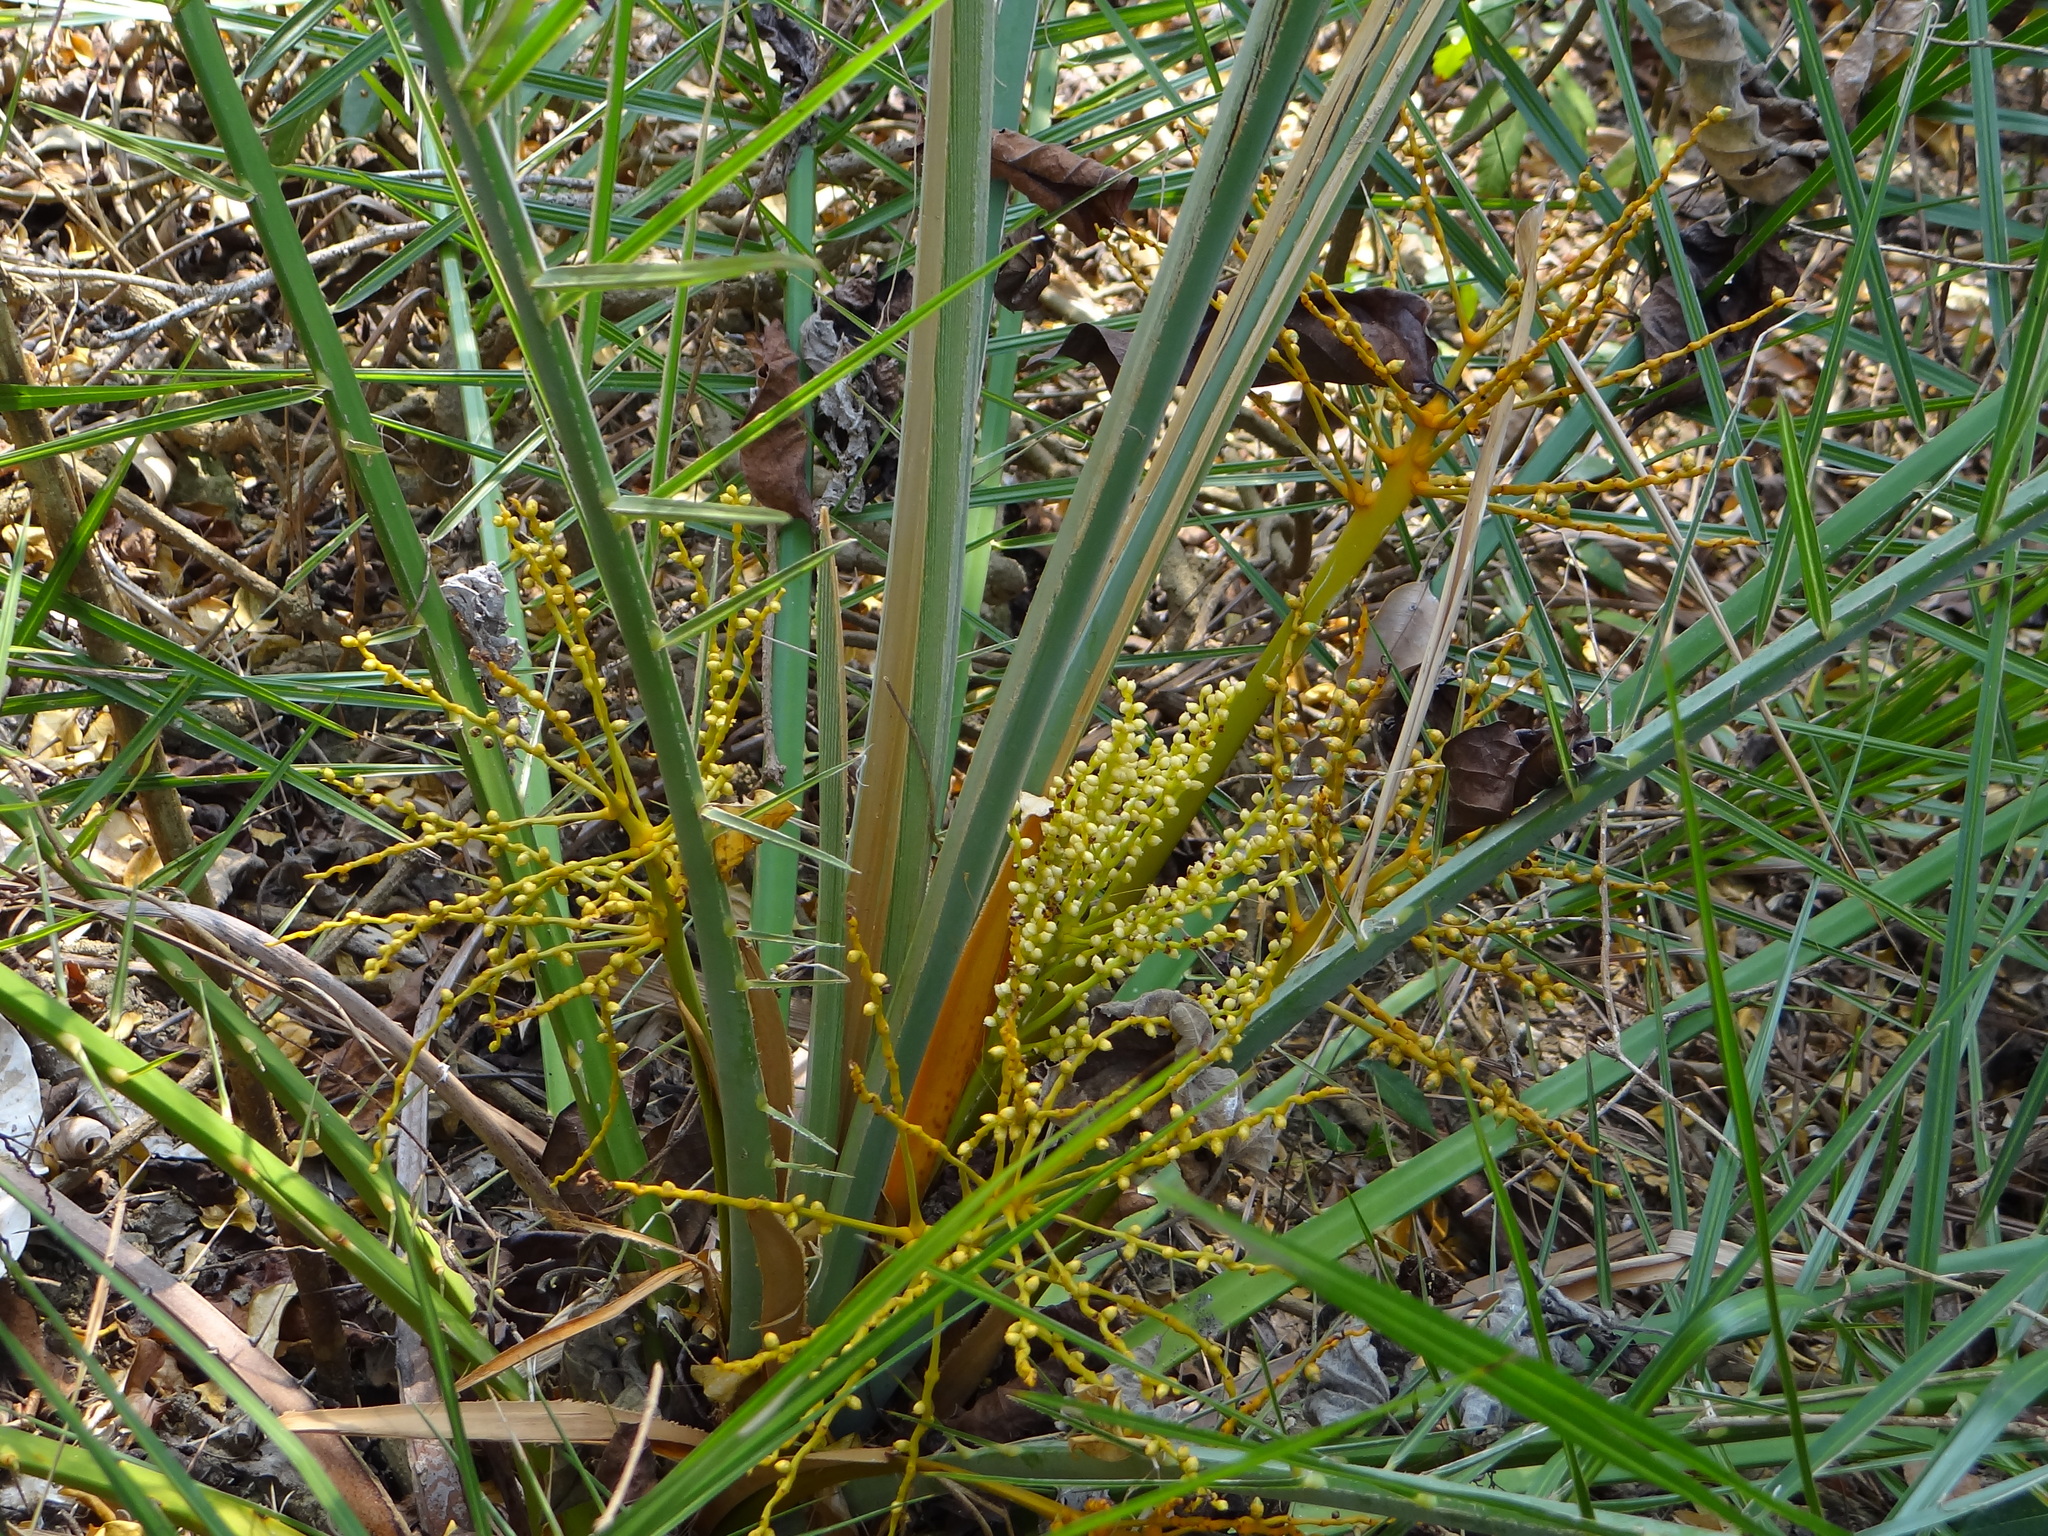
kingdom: Plantae
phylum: Tracheophyta
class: Liliopsida
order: Arecales
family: Arecaceae
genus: Phoenix
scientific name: Phoenix loureiroi
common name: Loureiro's palm
